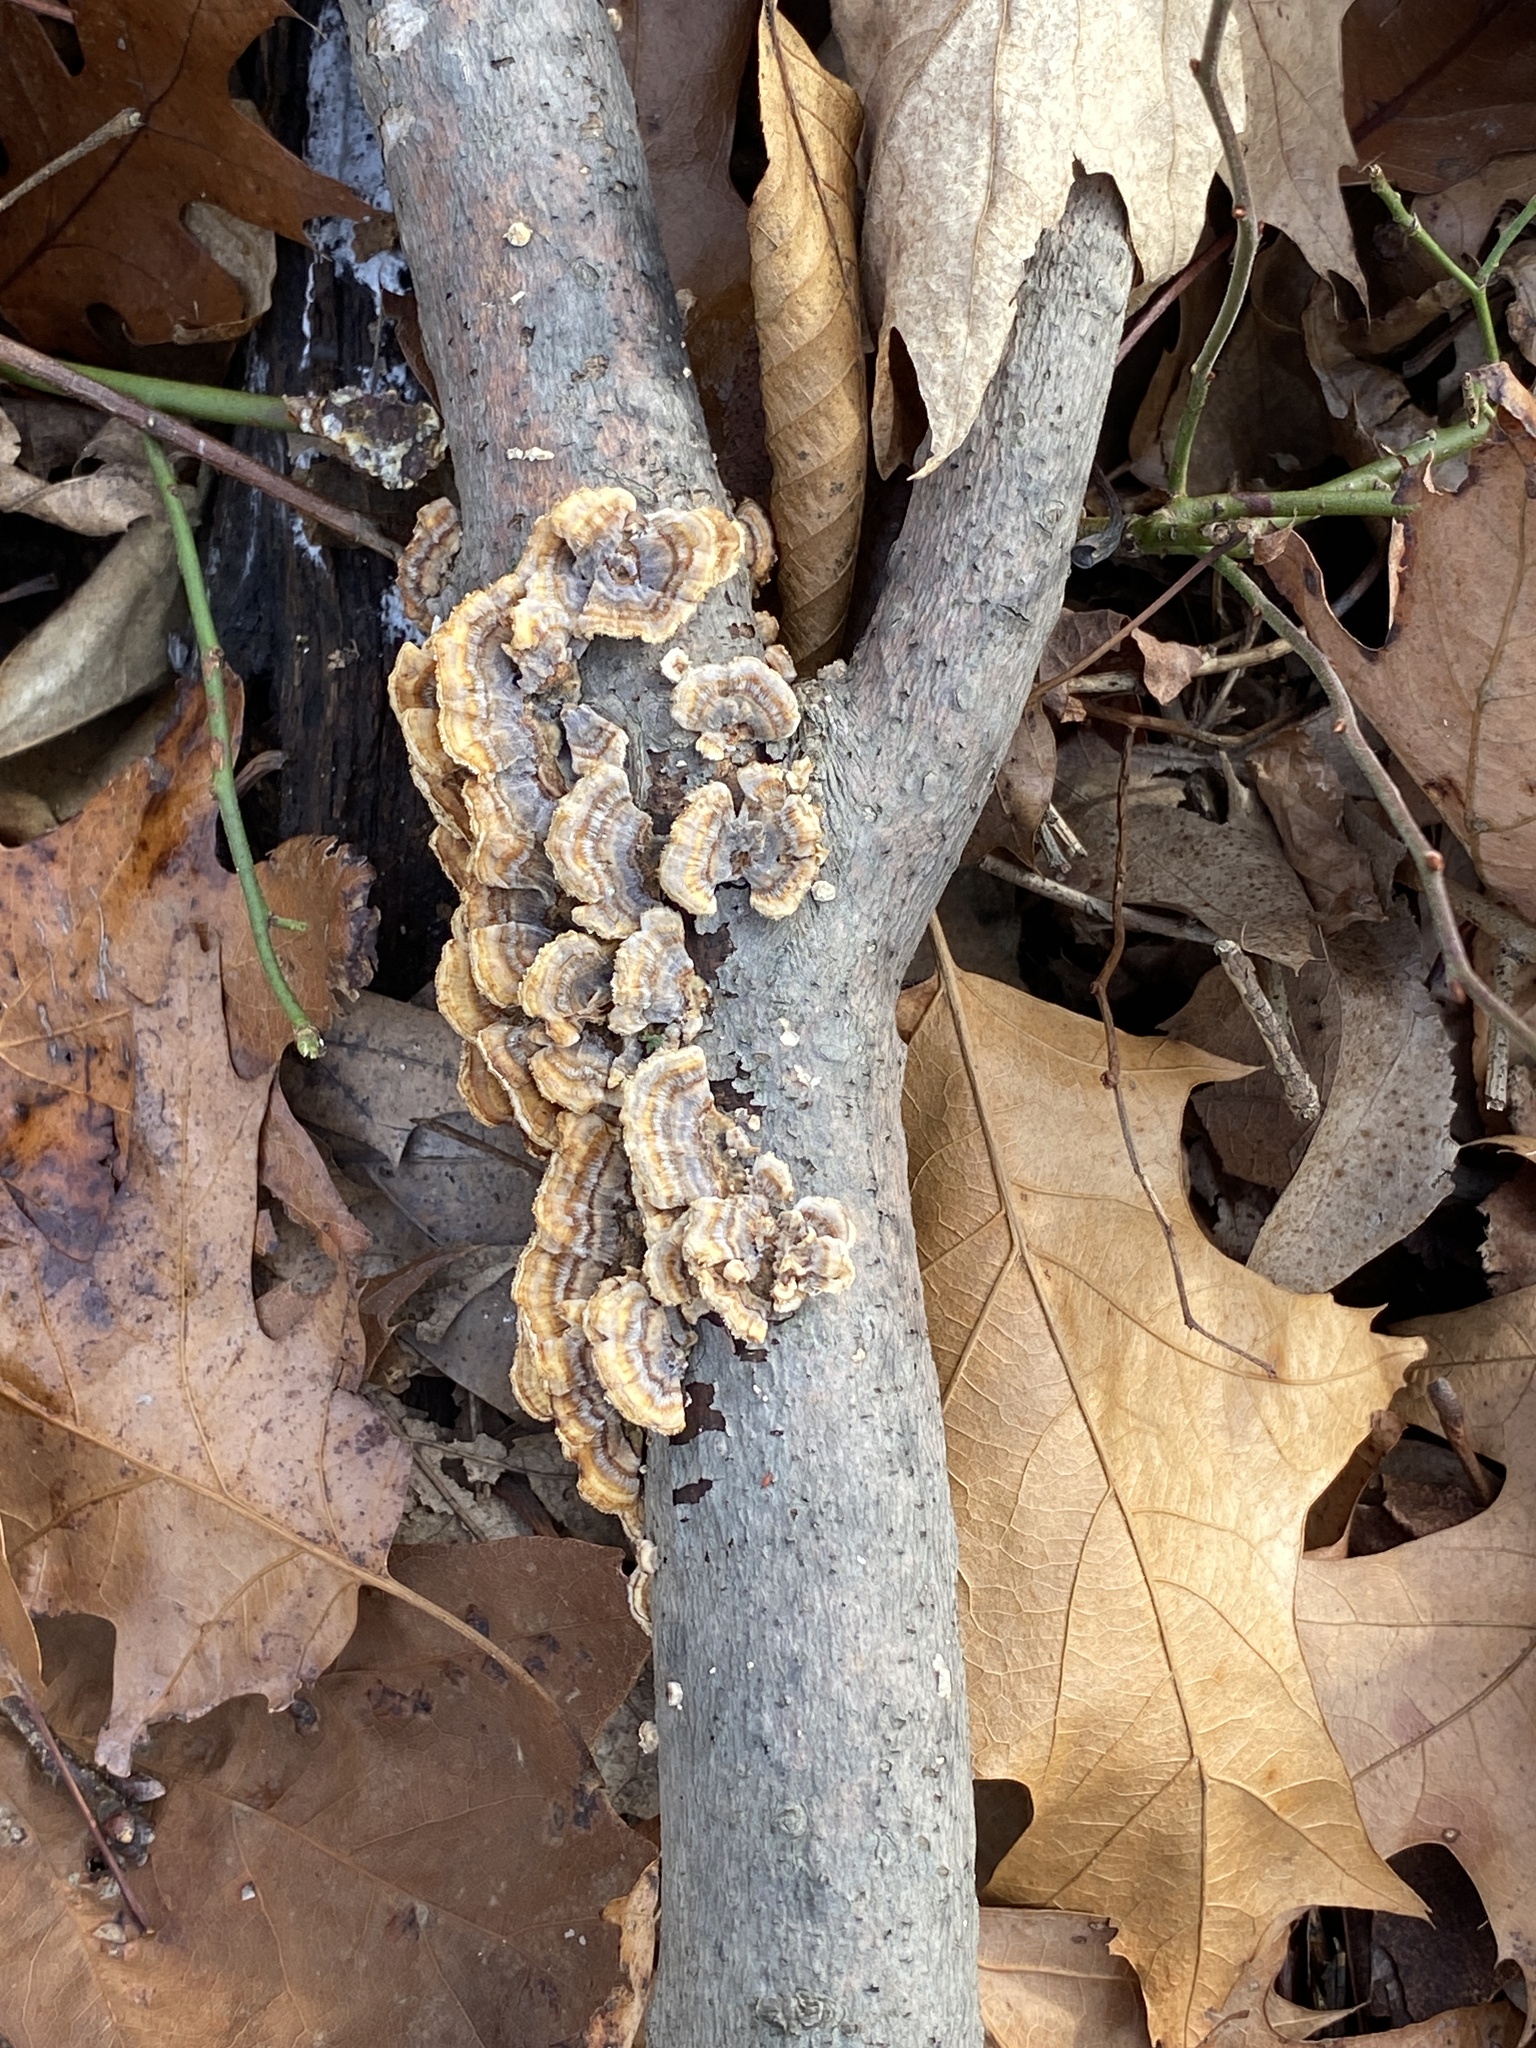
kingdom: Fungi
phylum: Basidiomycota
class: Agaricomycetes
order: Polyporales
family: Polyporaceae
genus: Trametes
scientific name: Trametes ochracea
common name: Ochre bracket
